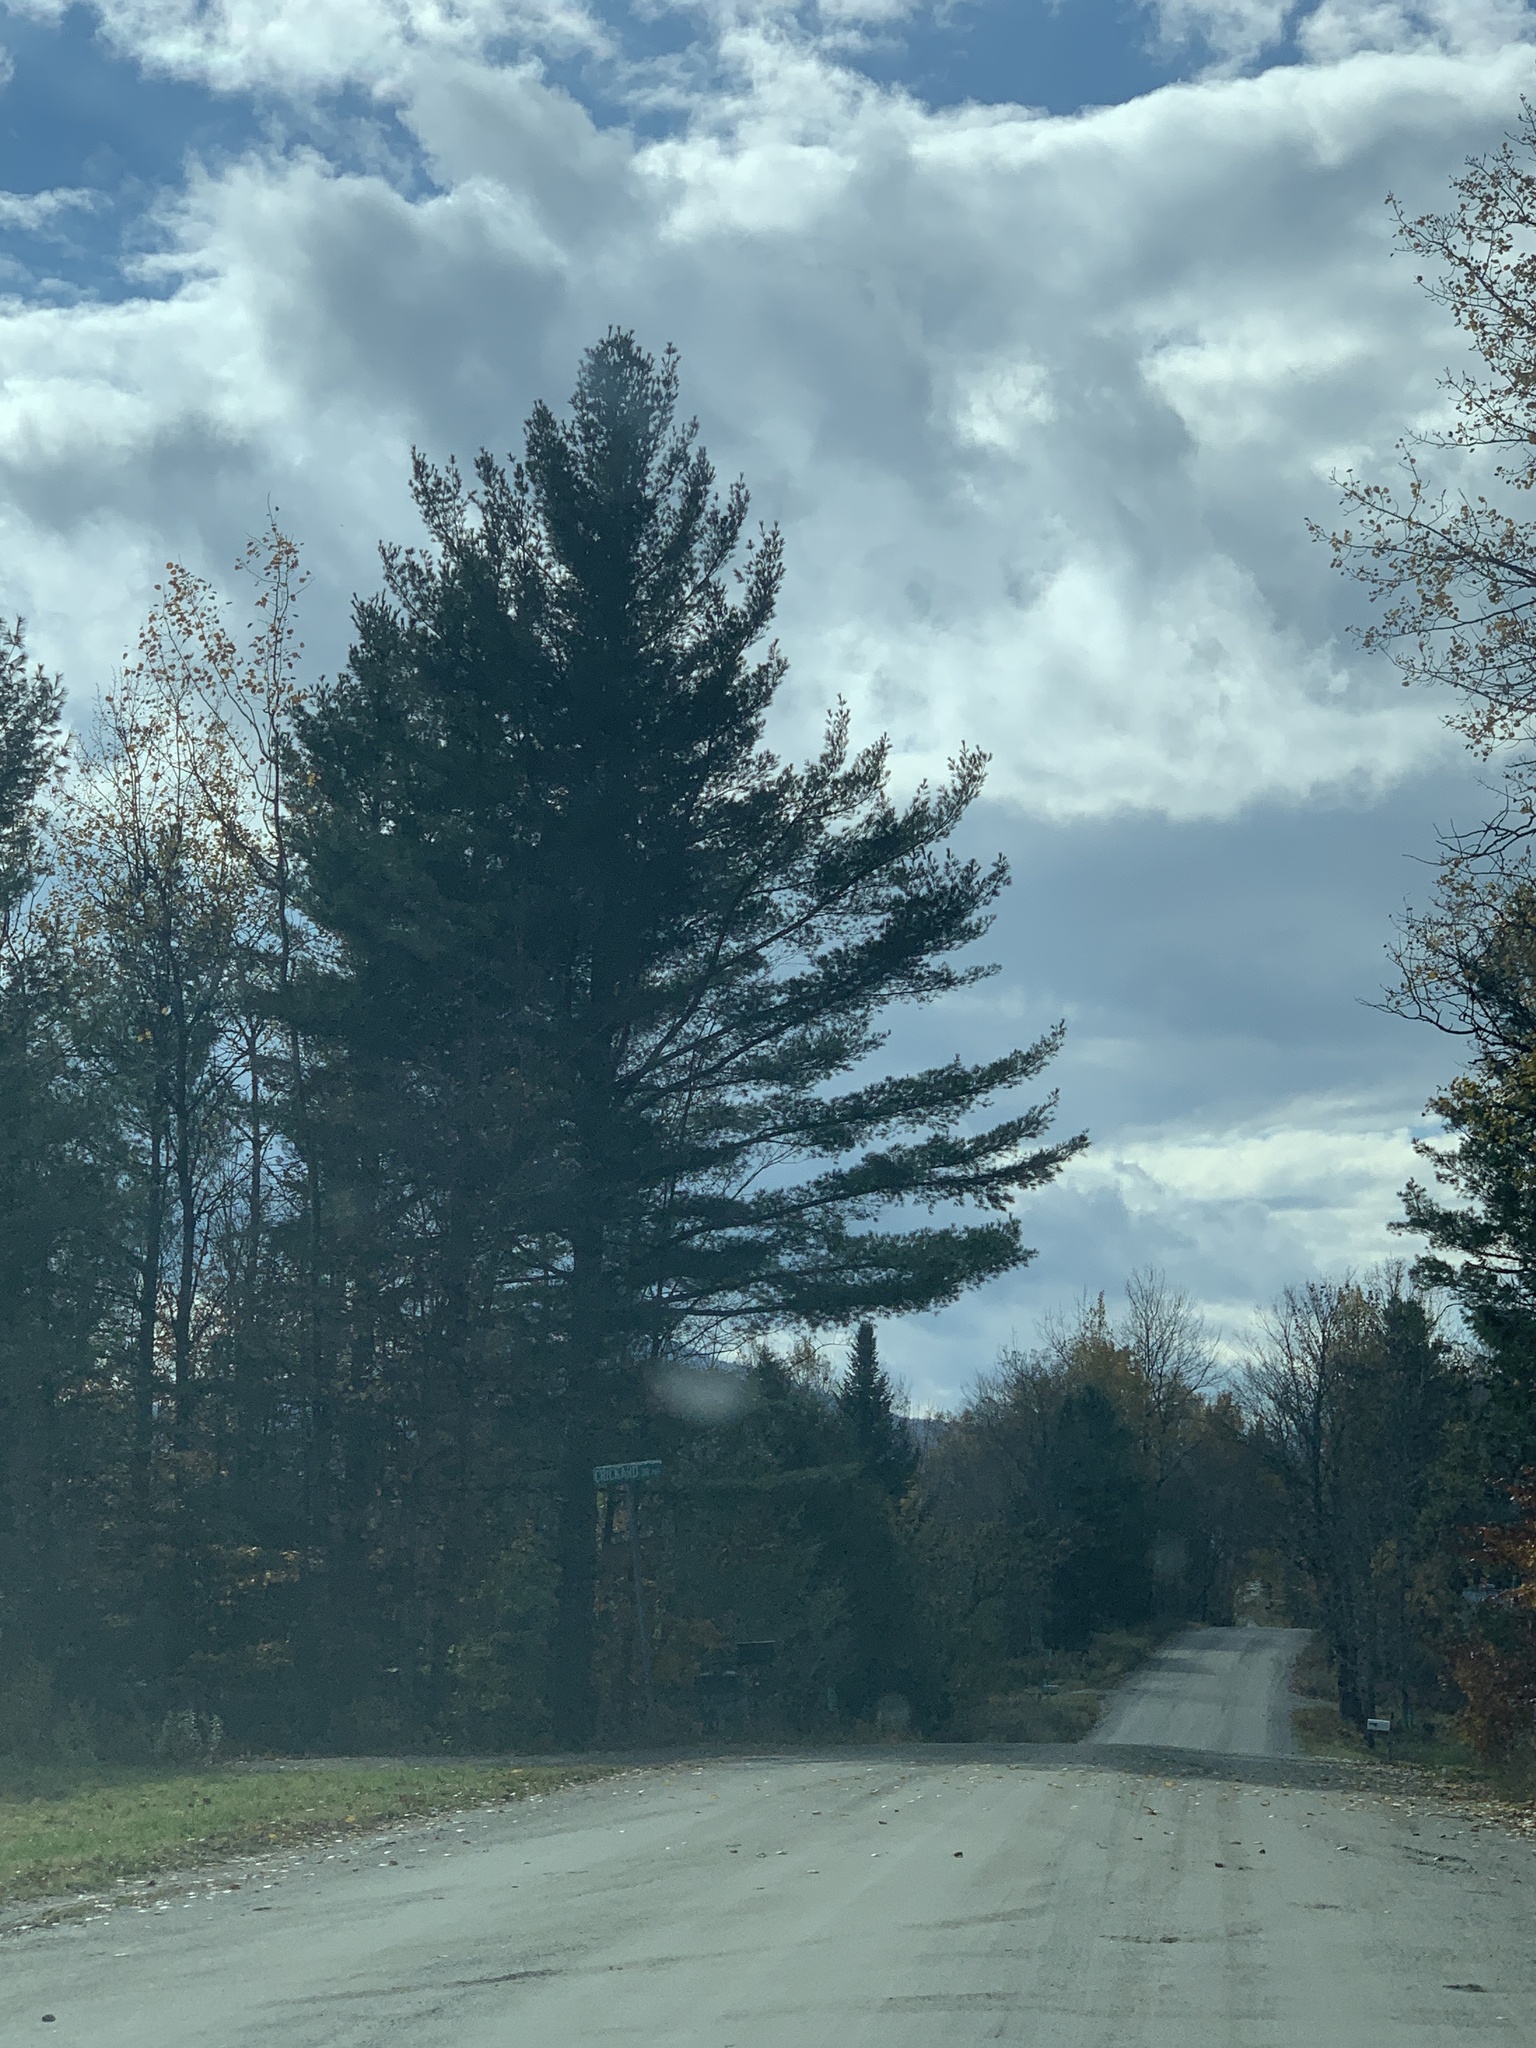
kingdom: Plantae
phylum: Tracheophyta
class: Pinopsida
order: Pinales
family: Pinaceae
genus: Pinus
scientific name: Pinus strobus
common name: Weymouth pine
